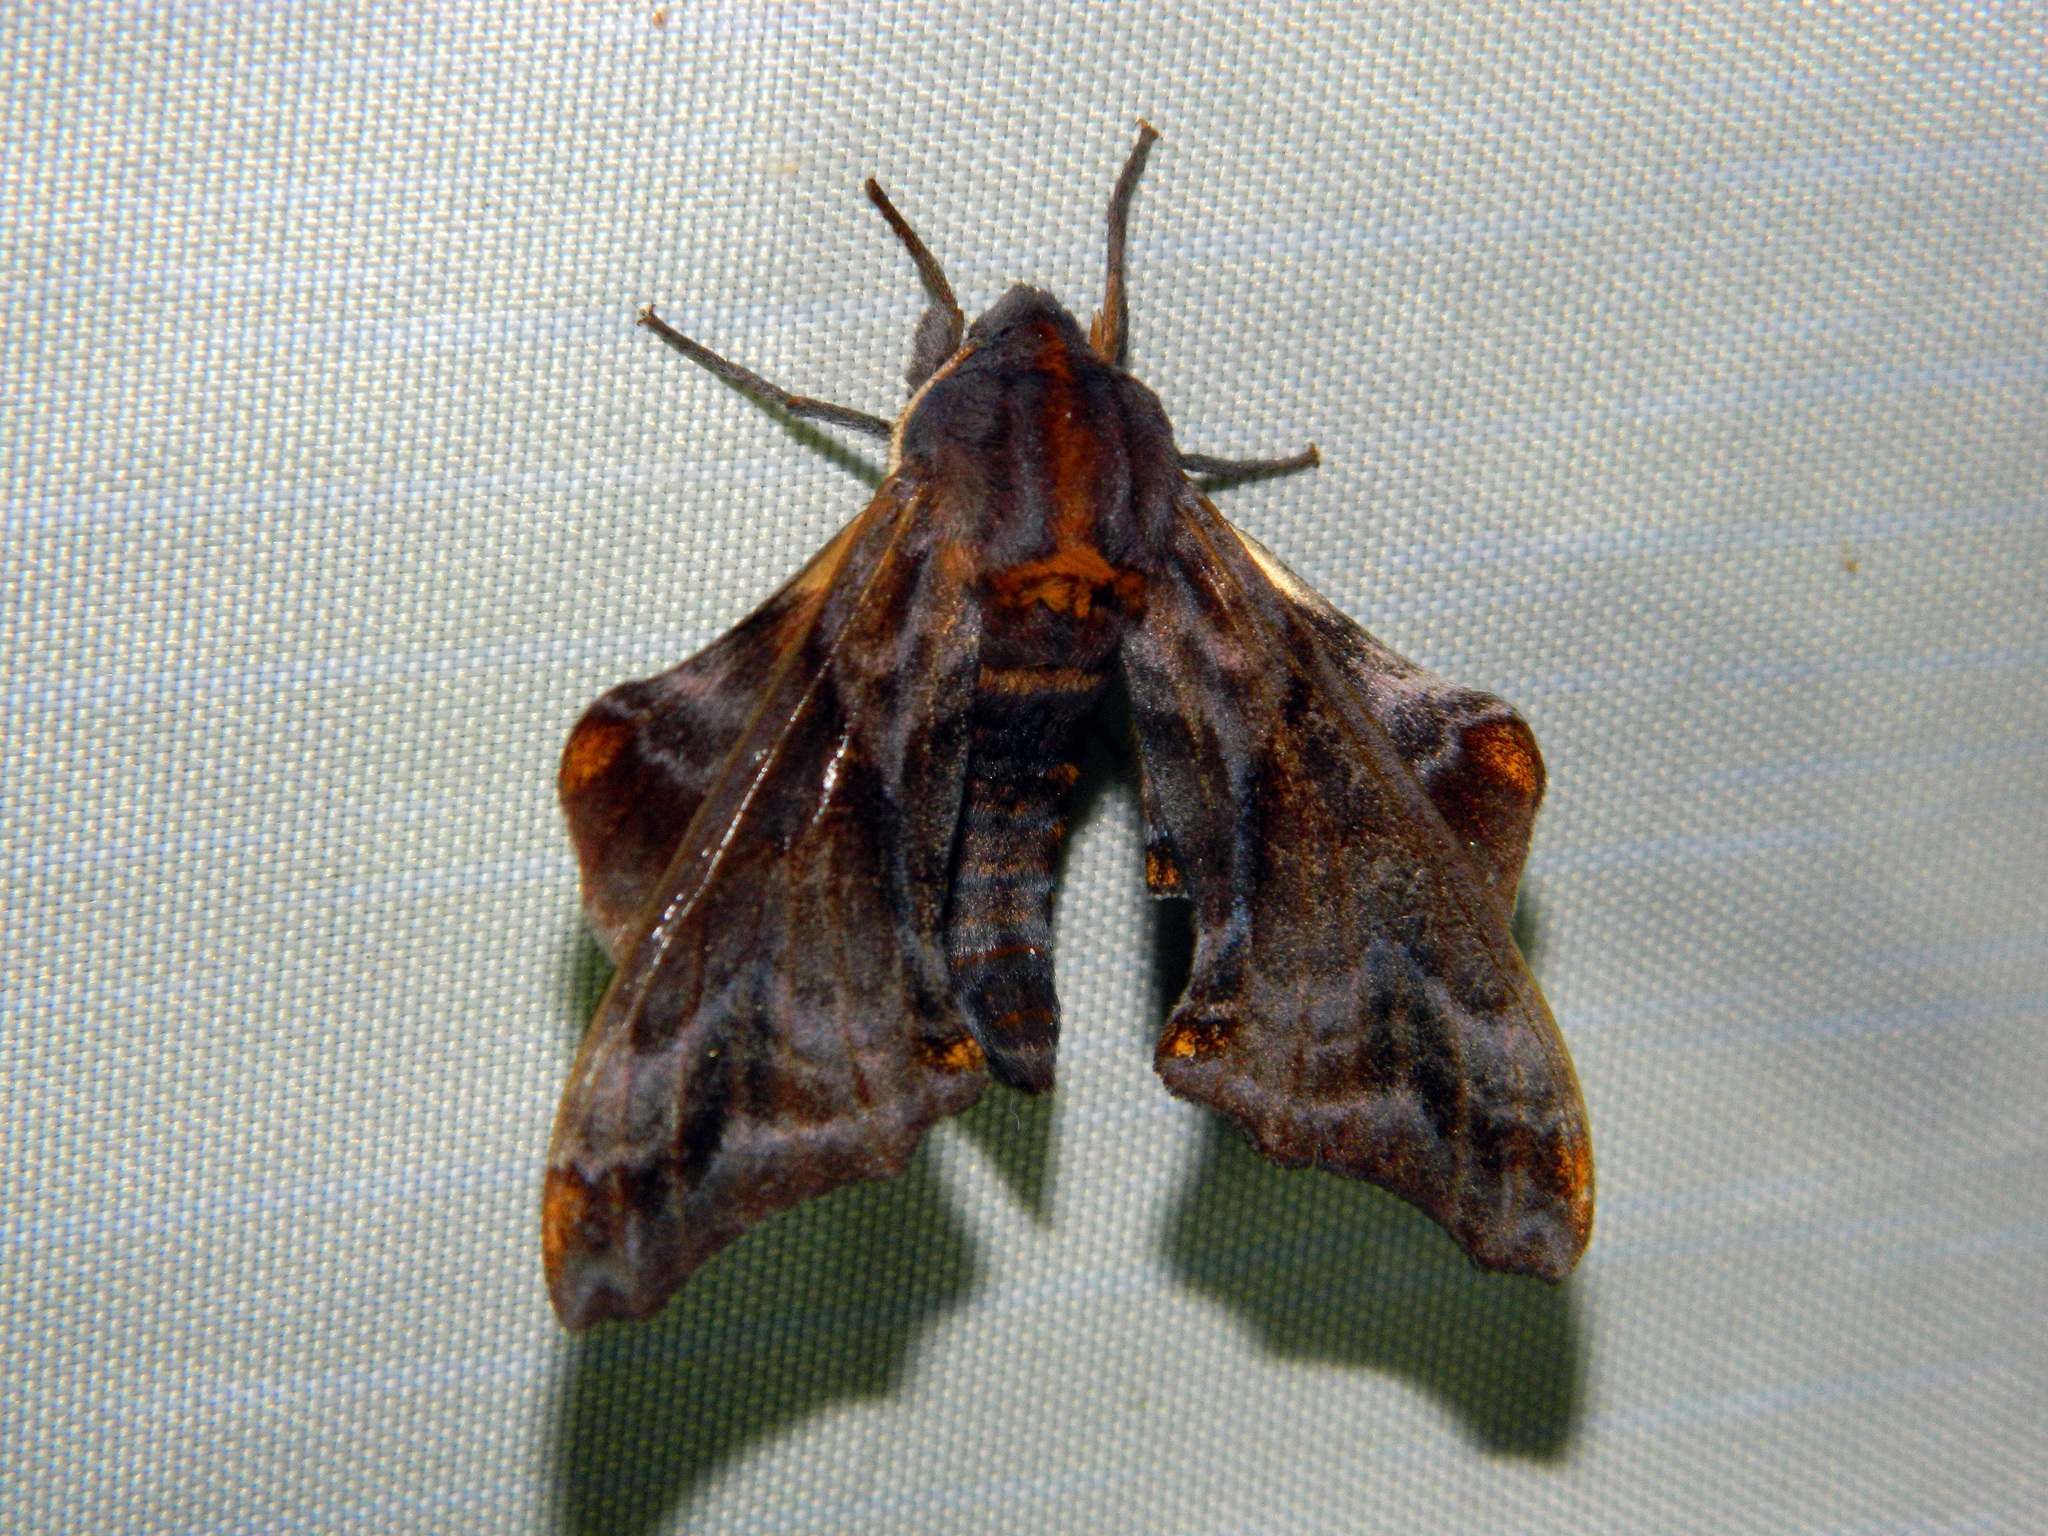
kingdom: Animalia
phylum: Arthropoda
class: Insecta
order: Lepidoptera
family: Sphingidae
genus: Paonias
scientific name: Paonias myops
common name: Small-eyed sphinx
